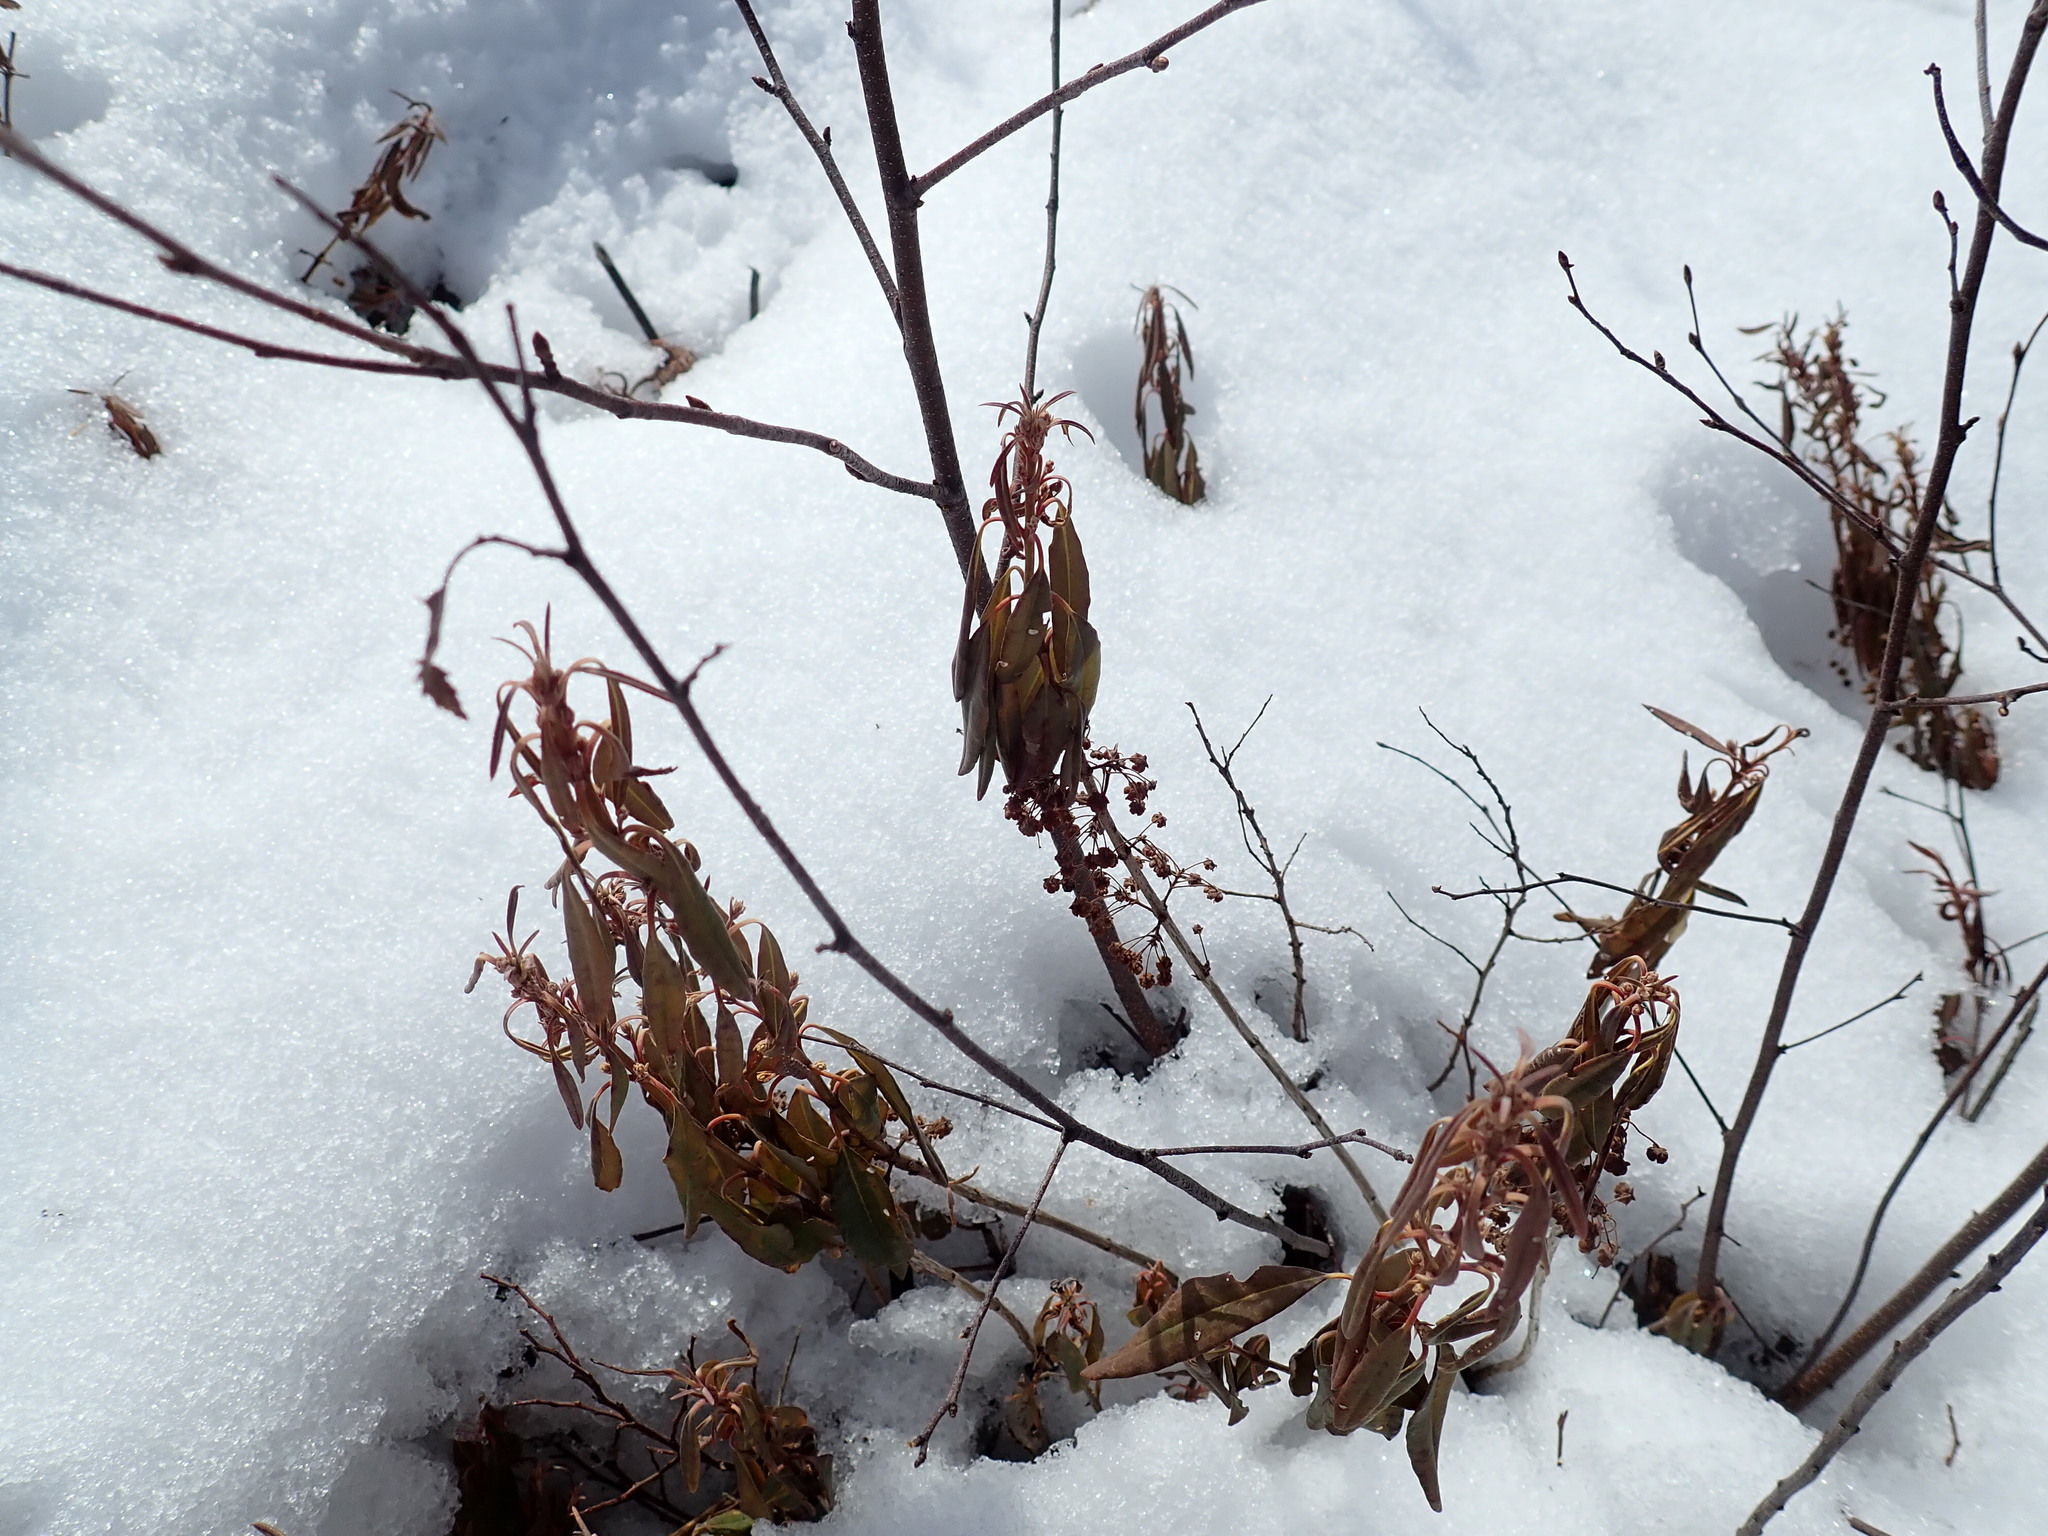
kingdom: Plantae
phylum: Tracheophyta
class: Magnoliopsida
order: Ericales
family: Ericaceae
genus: Kalmia
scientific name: Kalmia angustifolia
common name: Sheep-laurel
